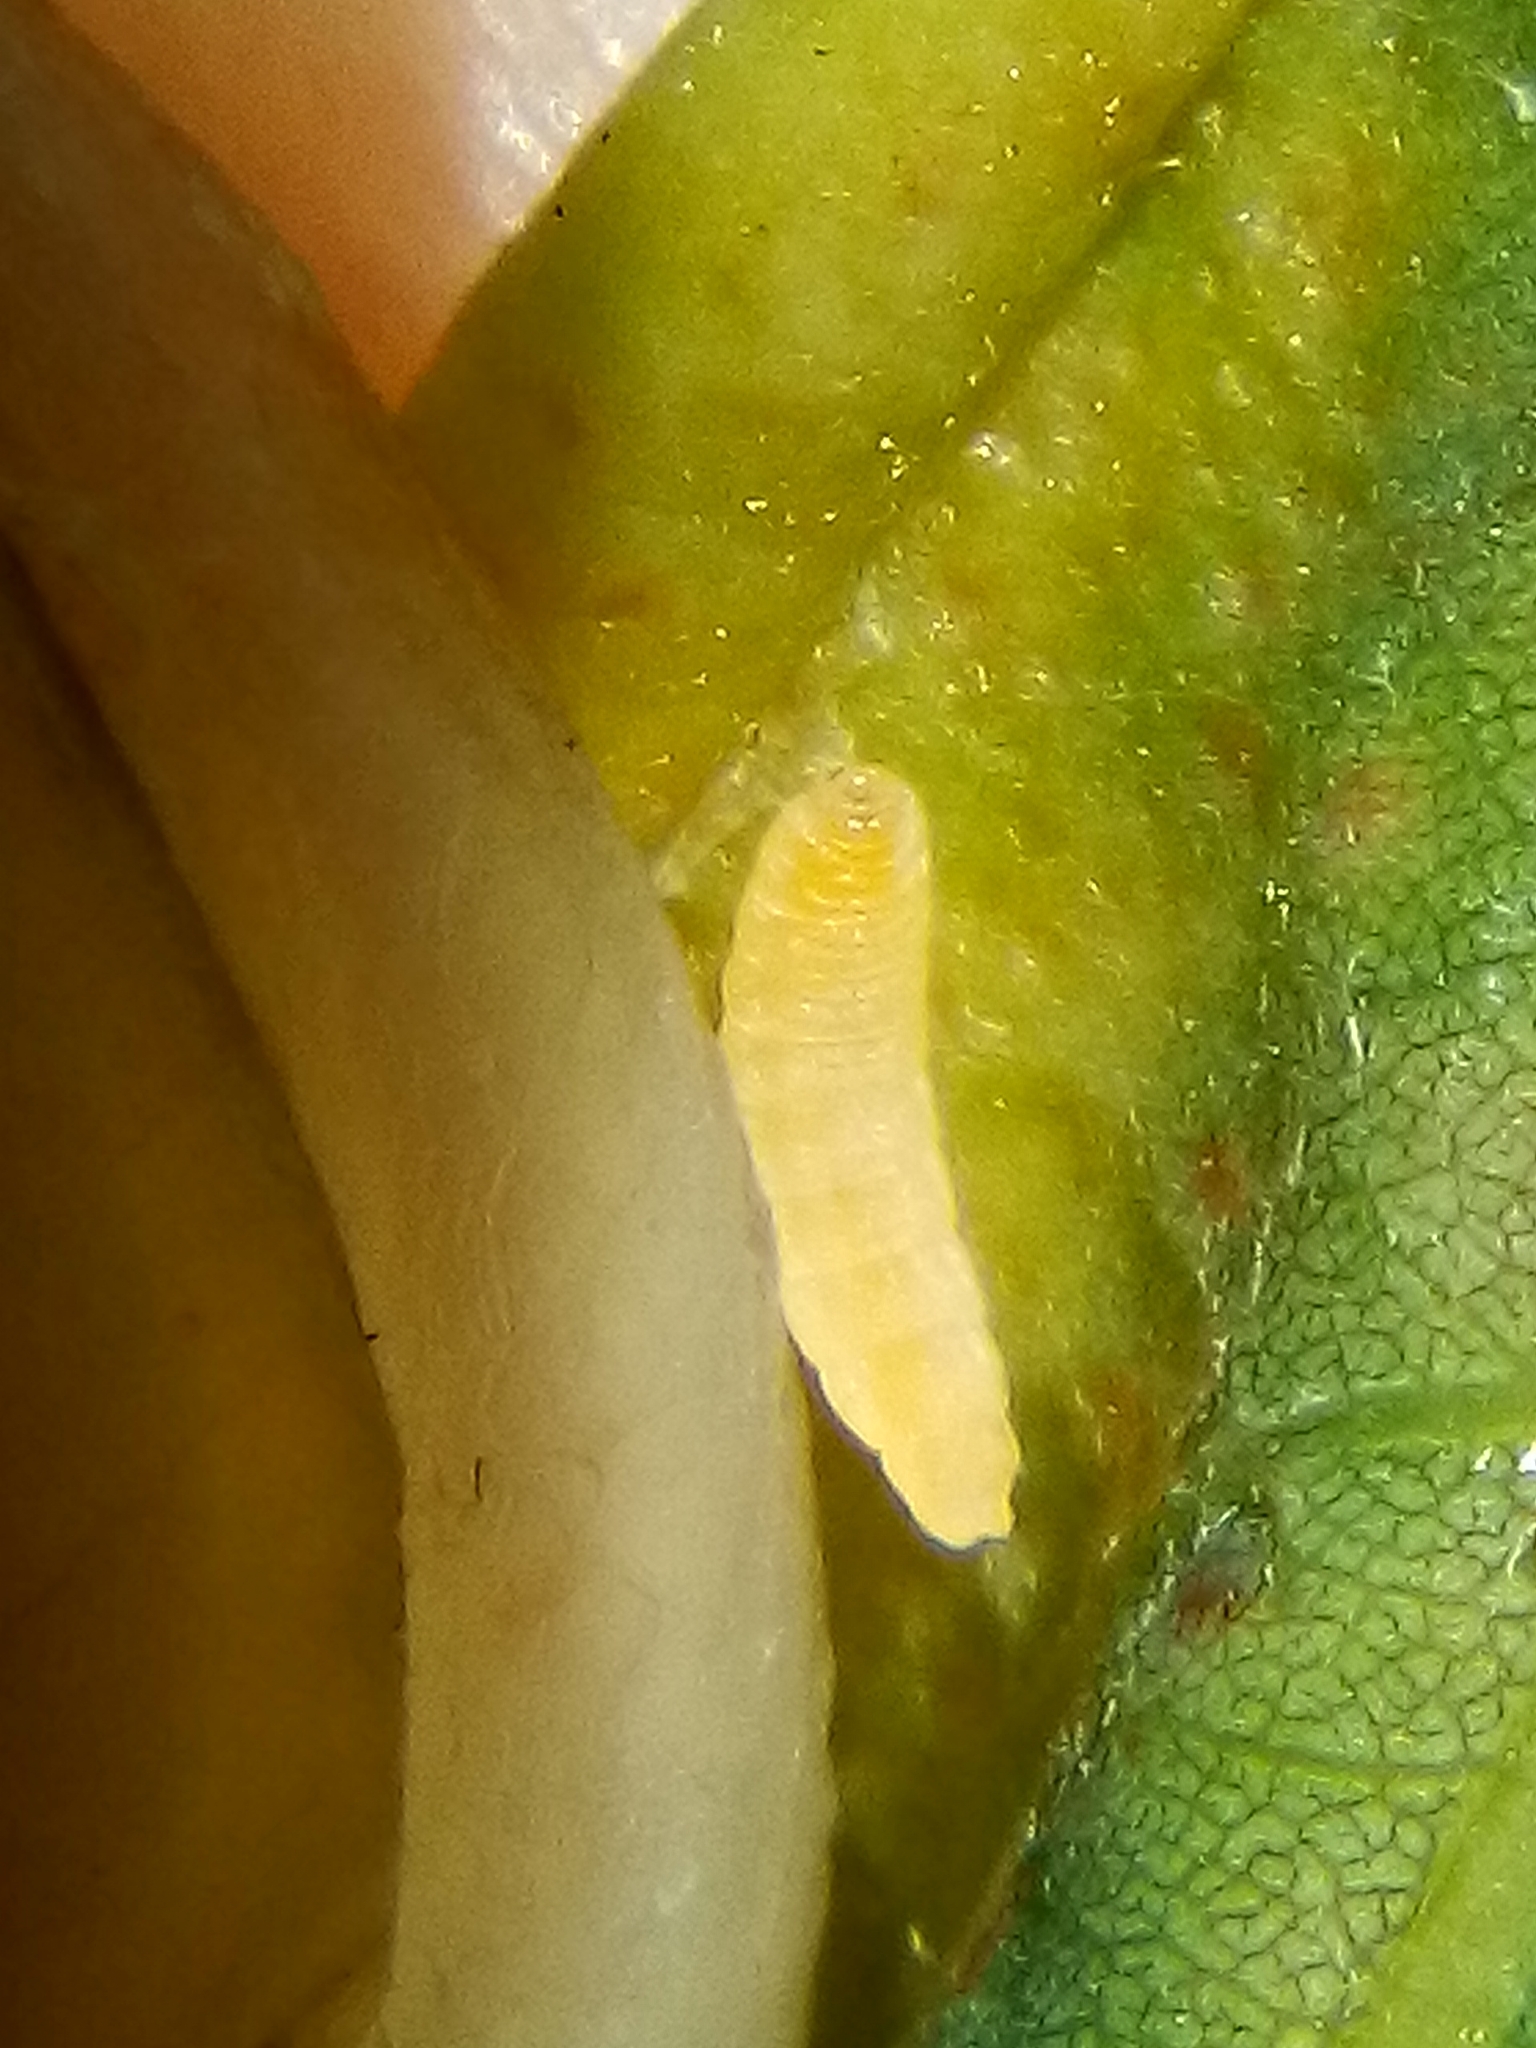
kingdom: Animalia
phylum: Arthropoda
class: Insecta
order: Diptera
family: Cecidomyiidae
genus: Obolodiplosis
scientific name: Obolodiplosis robiniae
